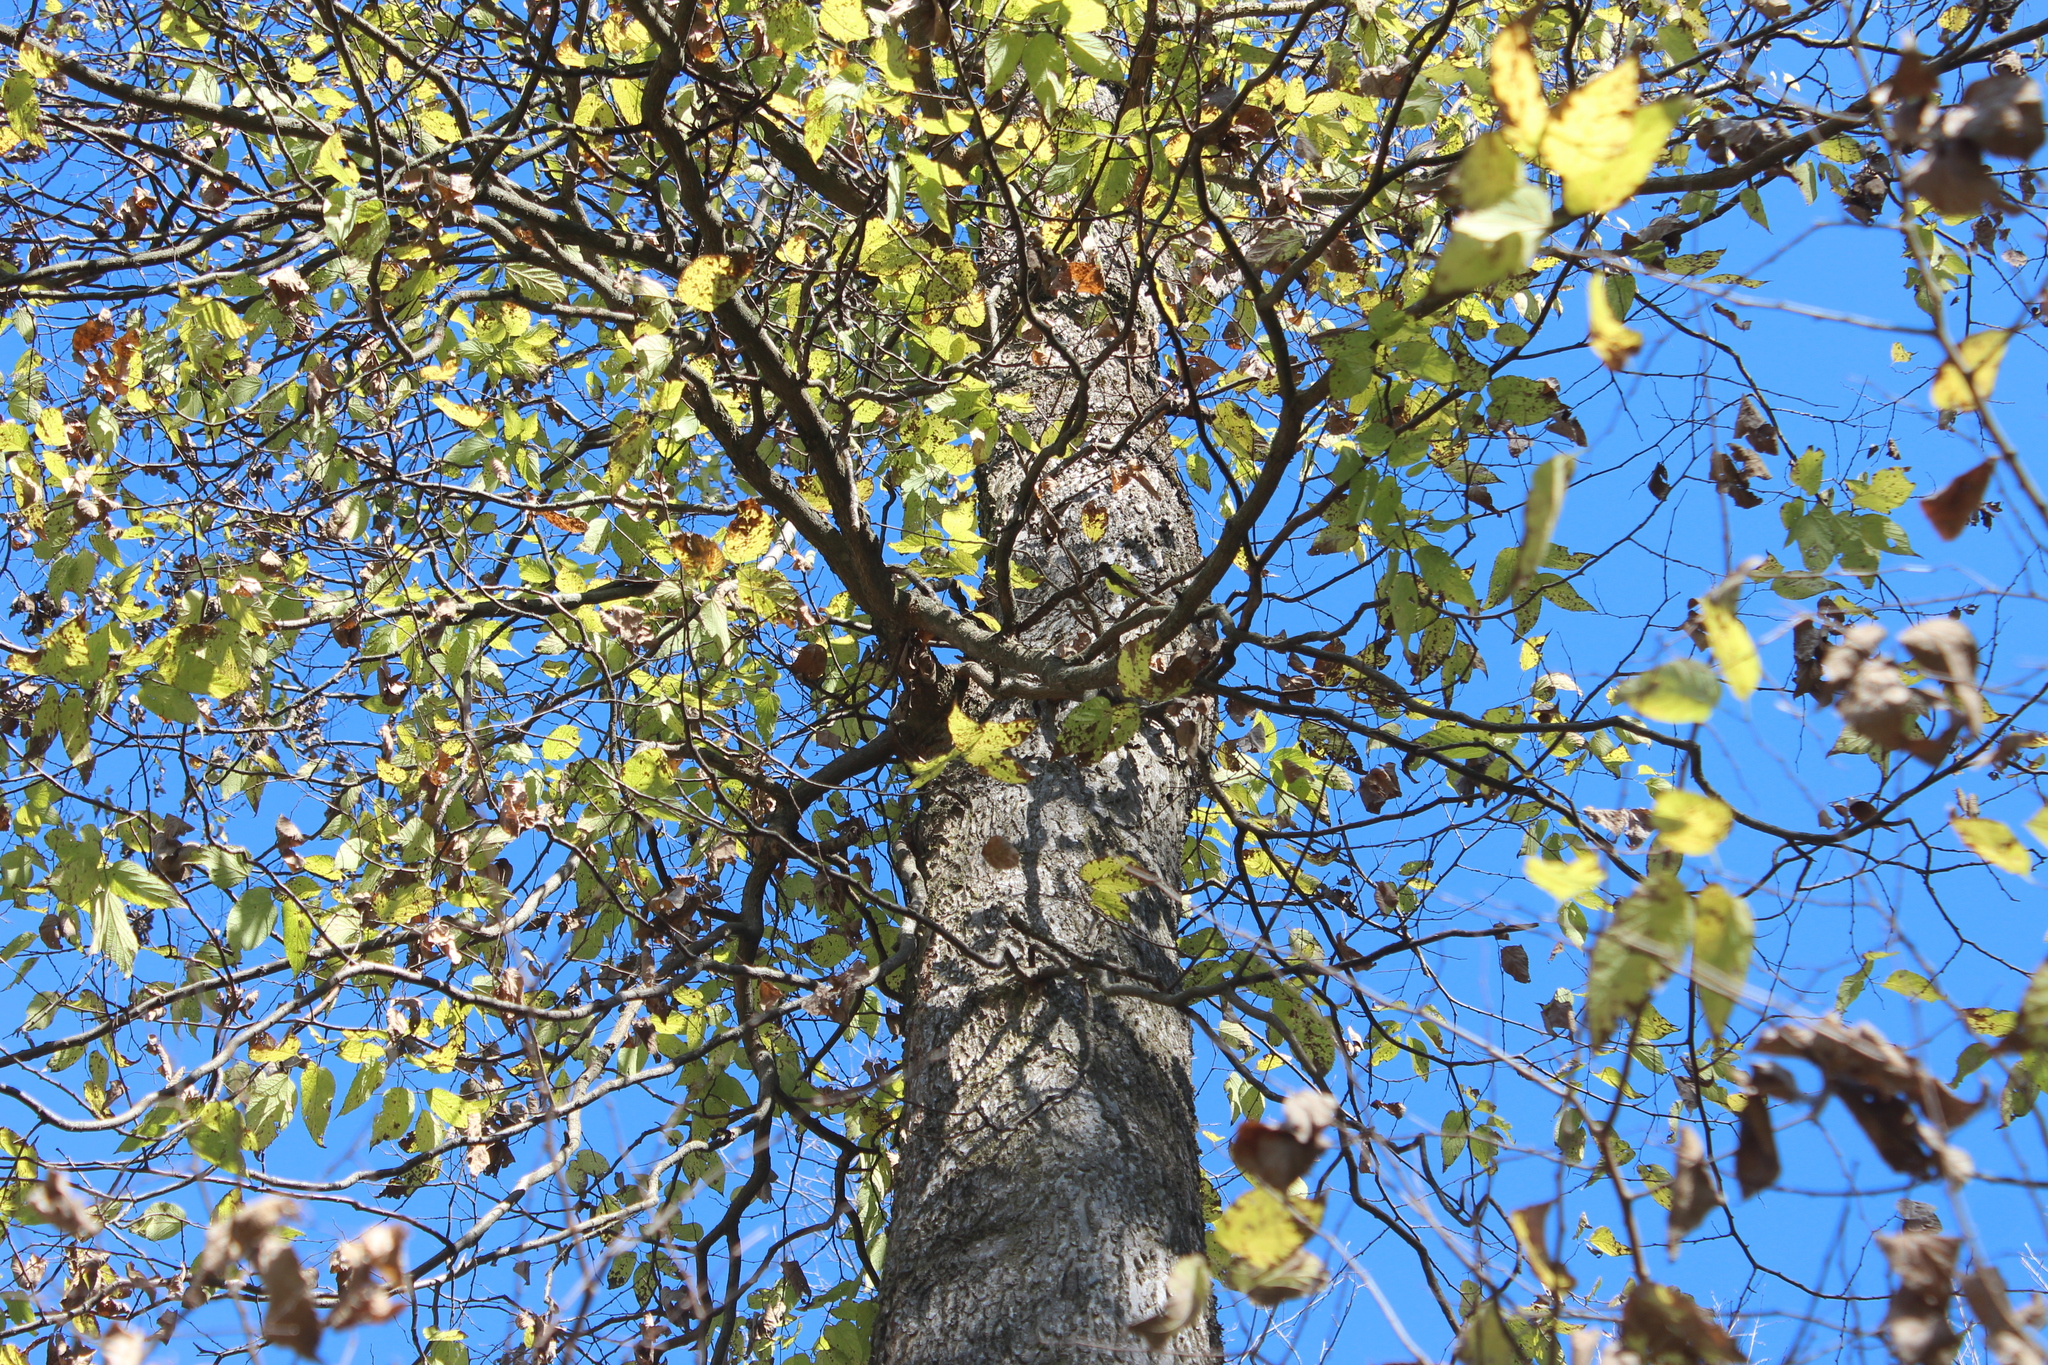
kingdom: Plantae
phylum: Tracheophyta
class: Magnoliopsida
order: Rosales
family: Cannabaceae
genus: Celtis
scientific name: Celtis occidentalis
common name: Common hackberry
